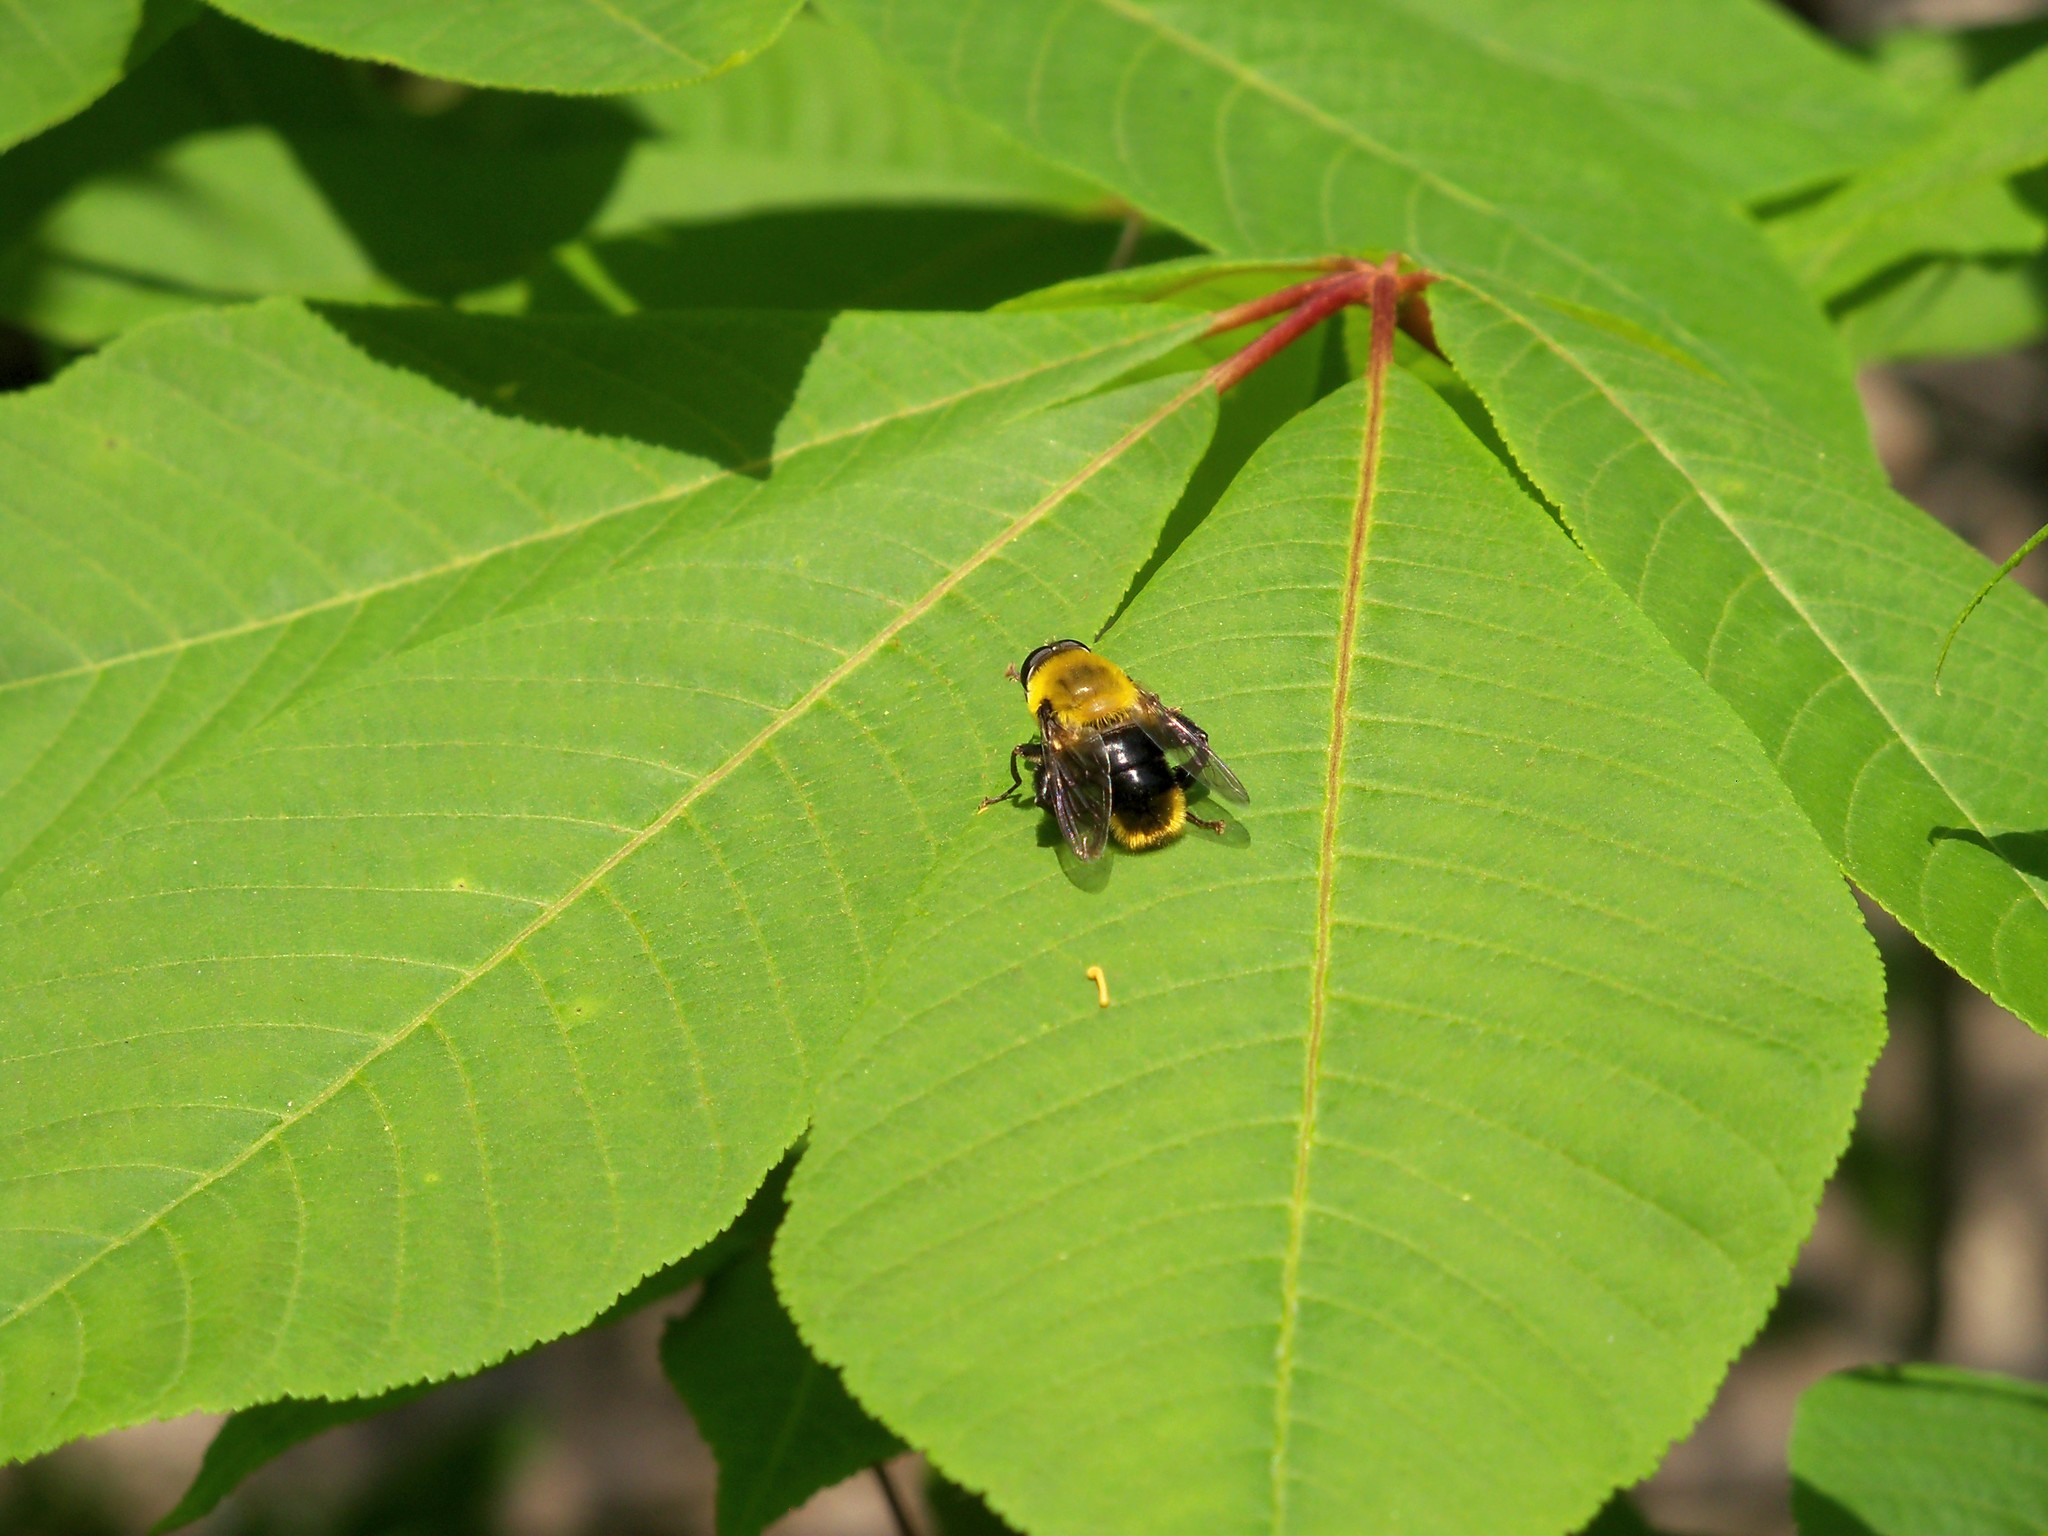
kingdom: Animalia
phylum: Arthropoda
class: Insecta
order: Diptera
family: Syrphidae
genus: Imatisma
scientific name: Imatisma bautias
